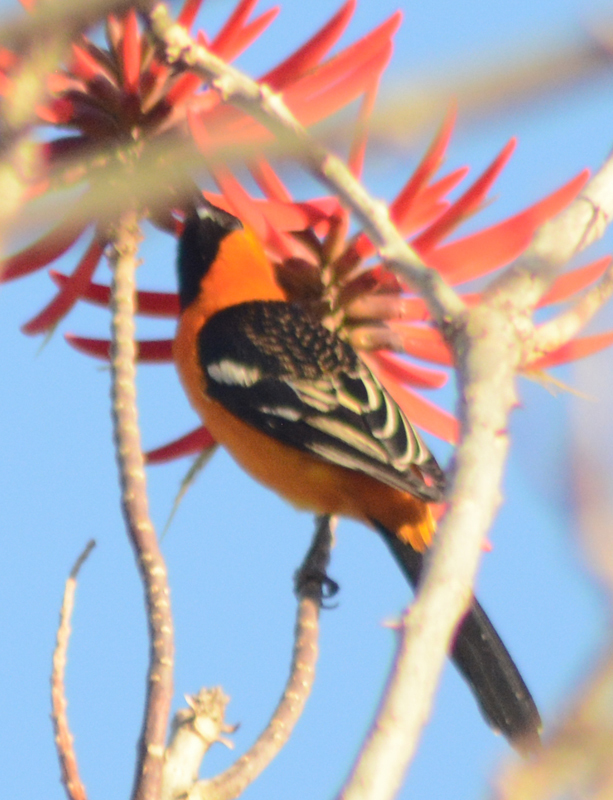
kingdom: Animalia
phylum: Chordata
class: Aves
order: Passeriformes
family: Icteridae
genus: Icterus
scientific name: Icterus pustulatus
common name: Streak-backed oriole
